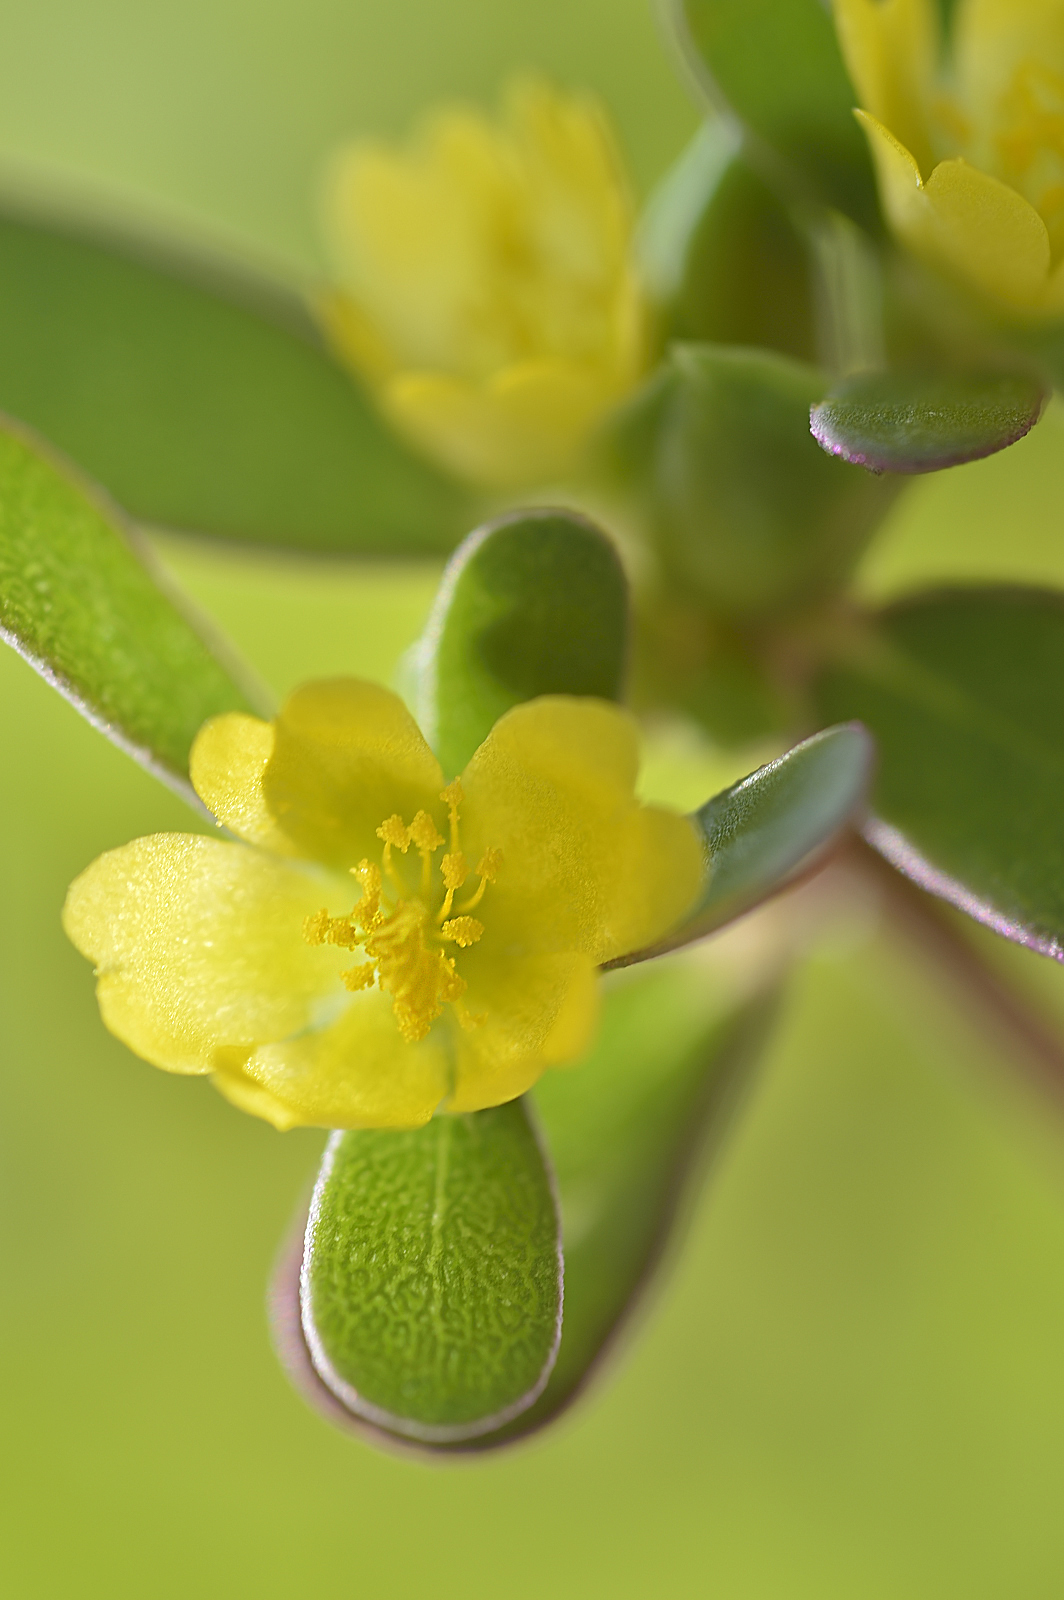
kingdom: Plantae
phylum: Tracheophyta
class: Magnoliopsida
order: Caryophyllales
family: Portulacaceae
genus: Portulaca
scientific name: Portulaca oleracea
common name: Common purslane
